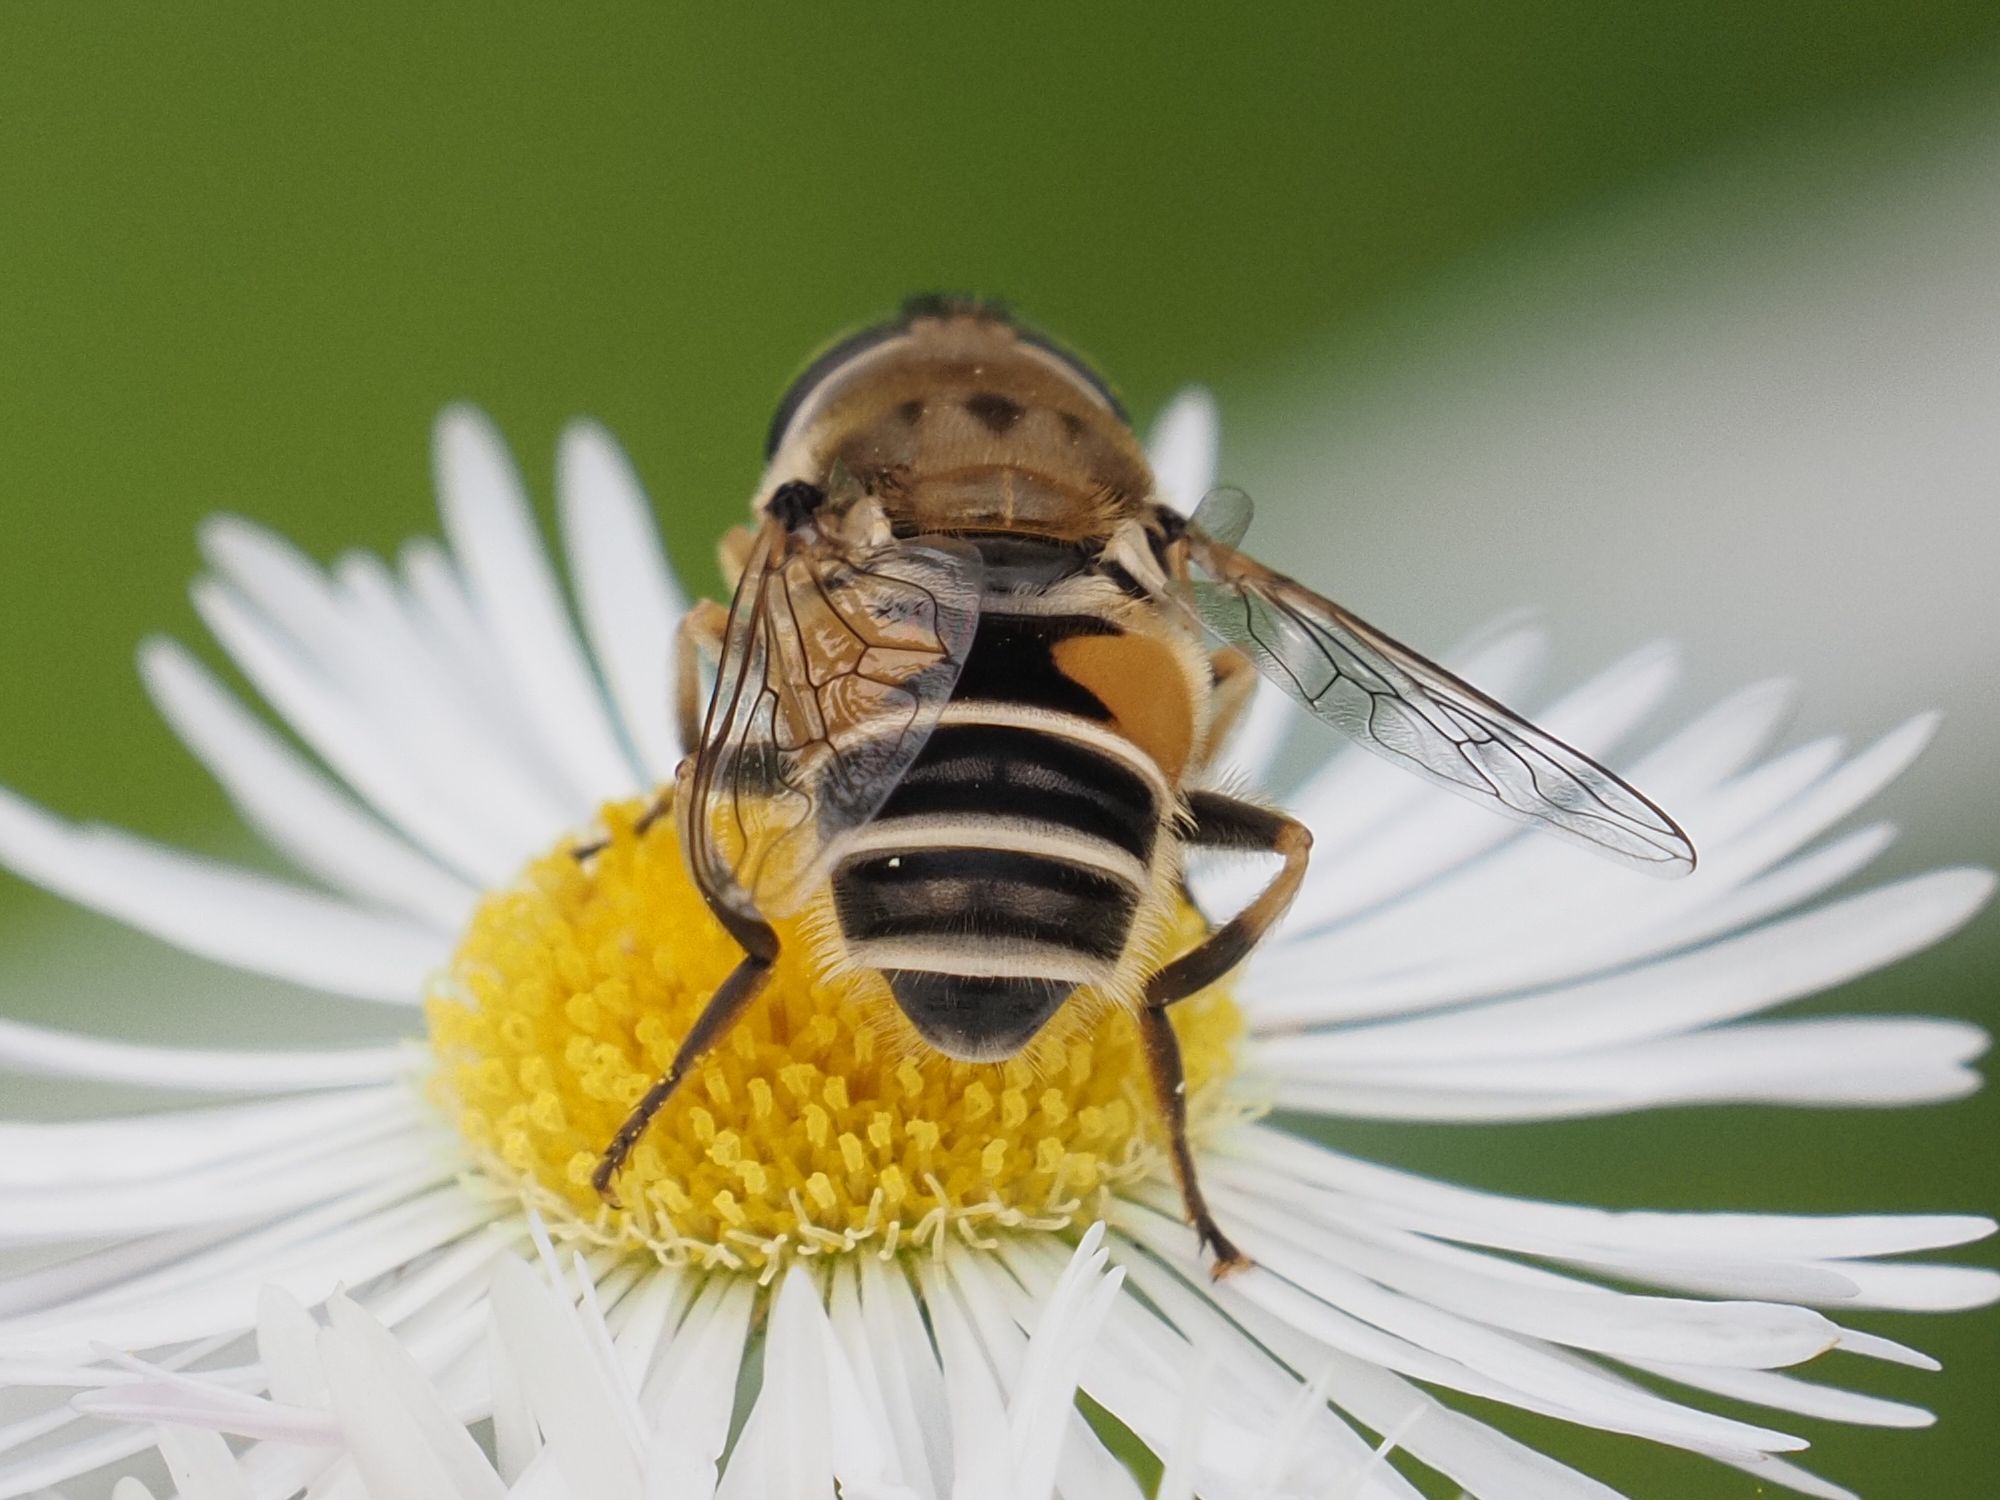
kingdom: Animalia
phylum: Arthropoda
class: Insecta
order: Diptera
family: Syrphidae
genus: Eristalis
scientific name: Eristalis arbustorum
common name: Hover fly
